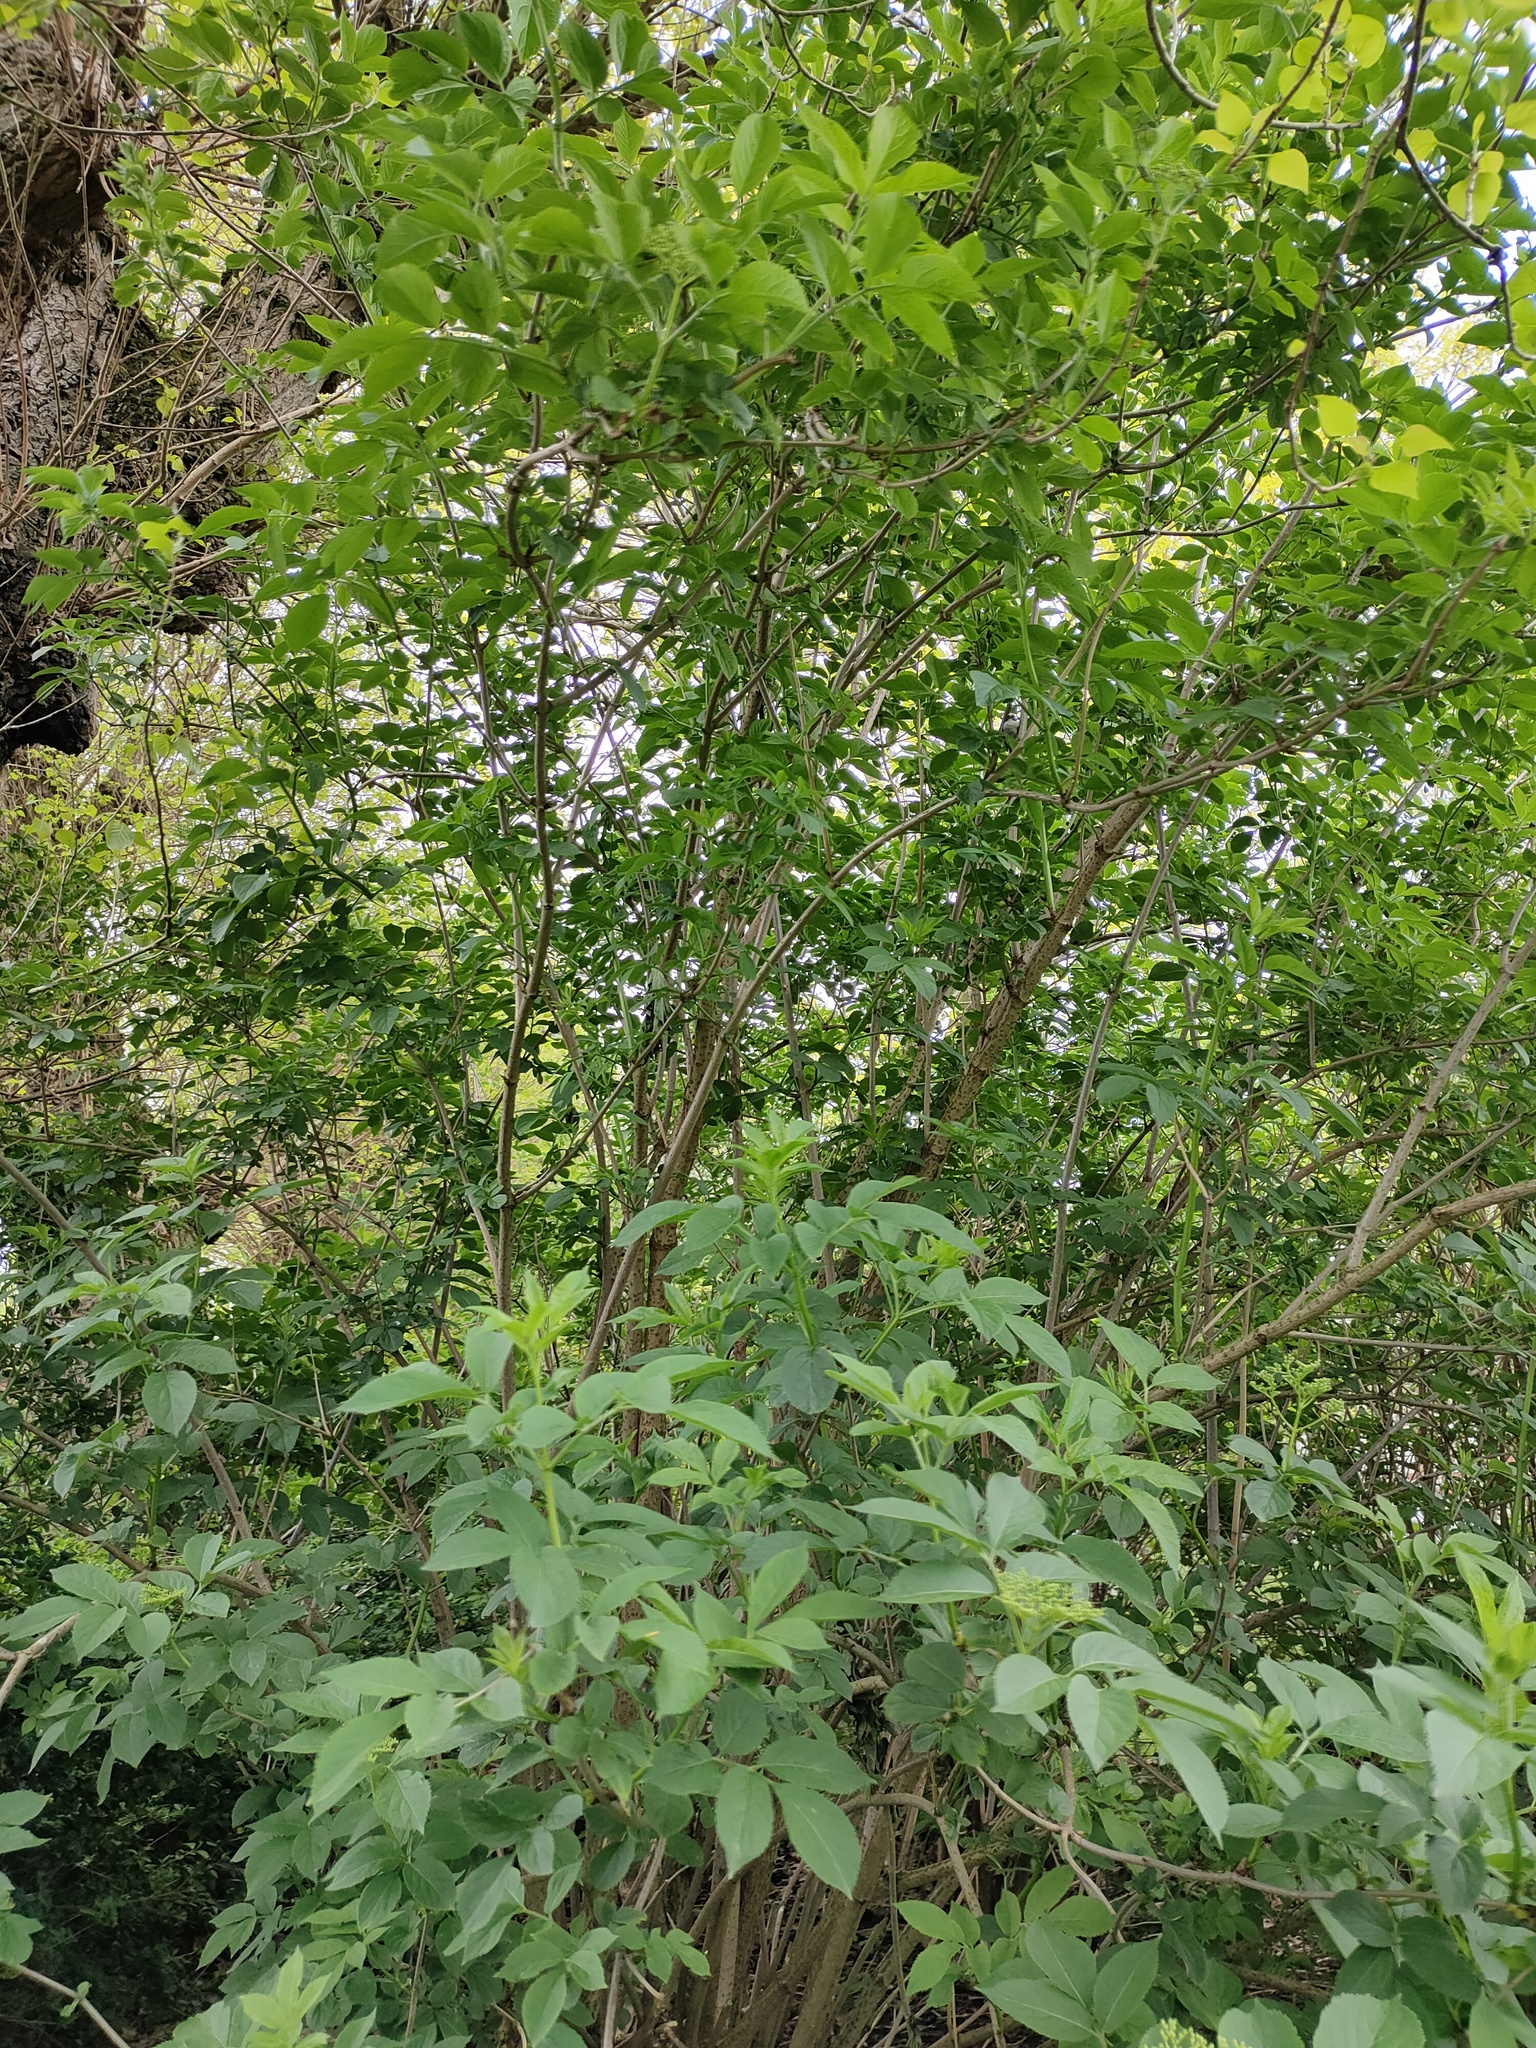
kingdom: Plantae
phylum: Tracheophyta
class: Magnoliopsida
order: Dipsacales
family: Viburnaceae
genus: Sambucus
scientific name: Sambucus nigra
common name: Elder
